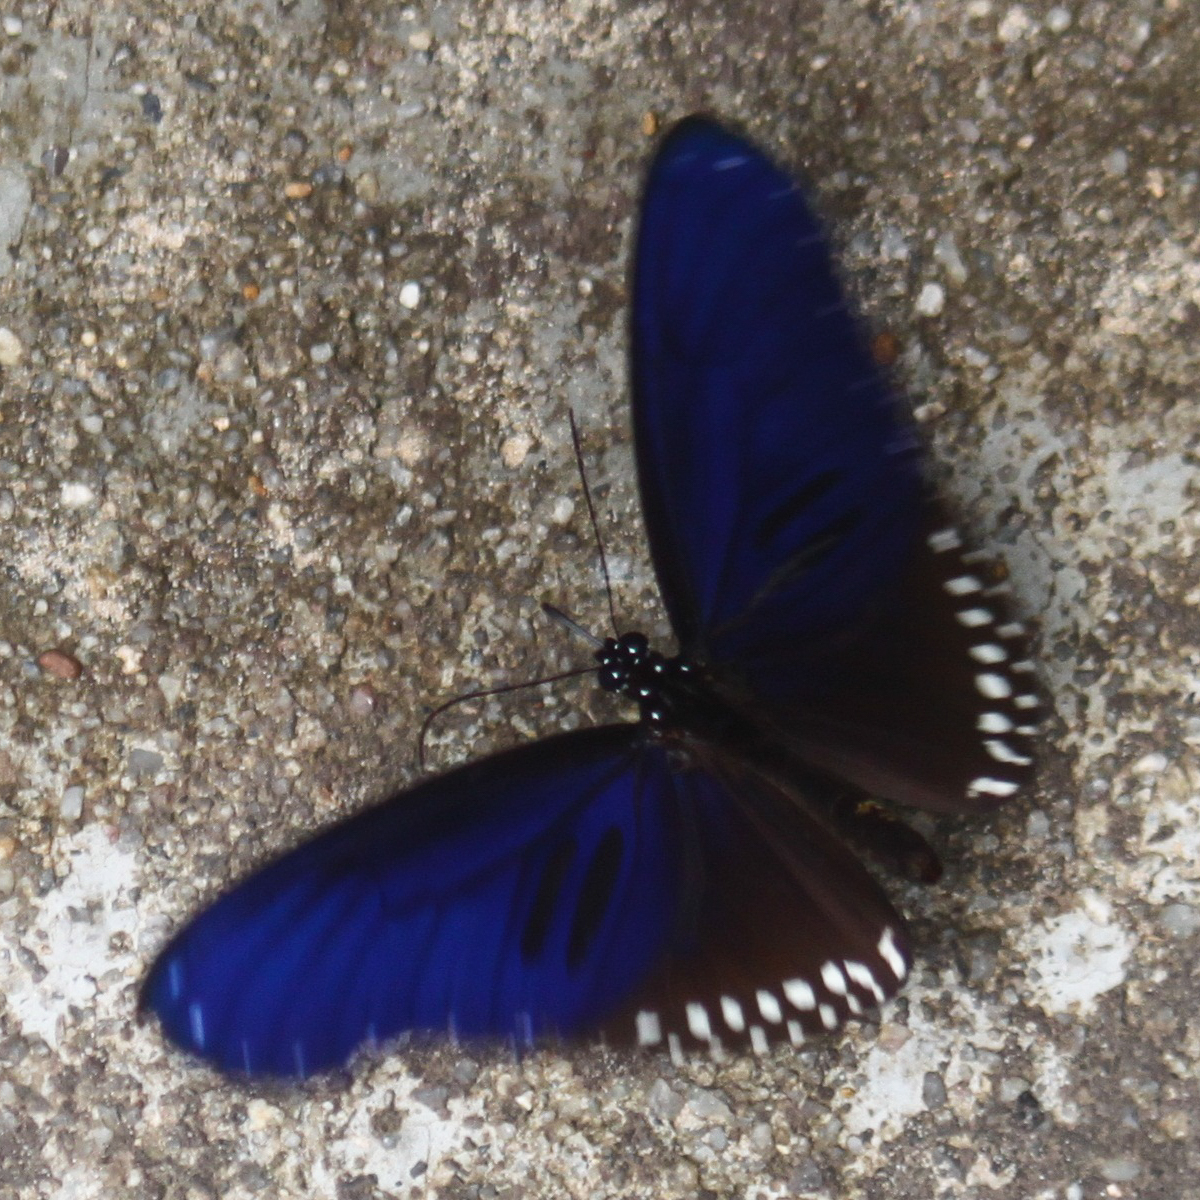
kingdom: Animalia
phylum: Arthropoda
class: Insecta
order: Lepidoptera
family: Nymphalidae
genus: Euploea
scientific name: Euploea sylvester
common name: Double-branded crow butterfly
